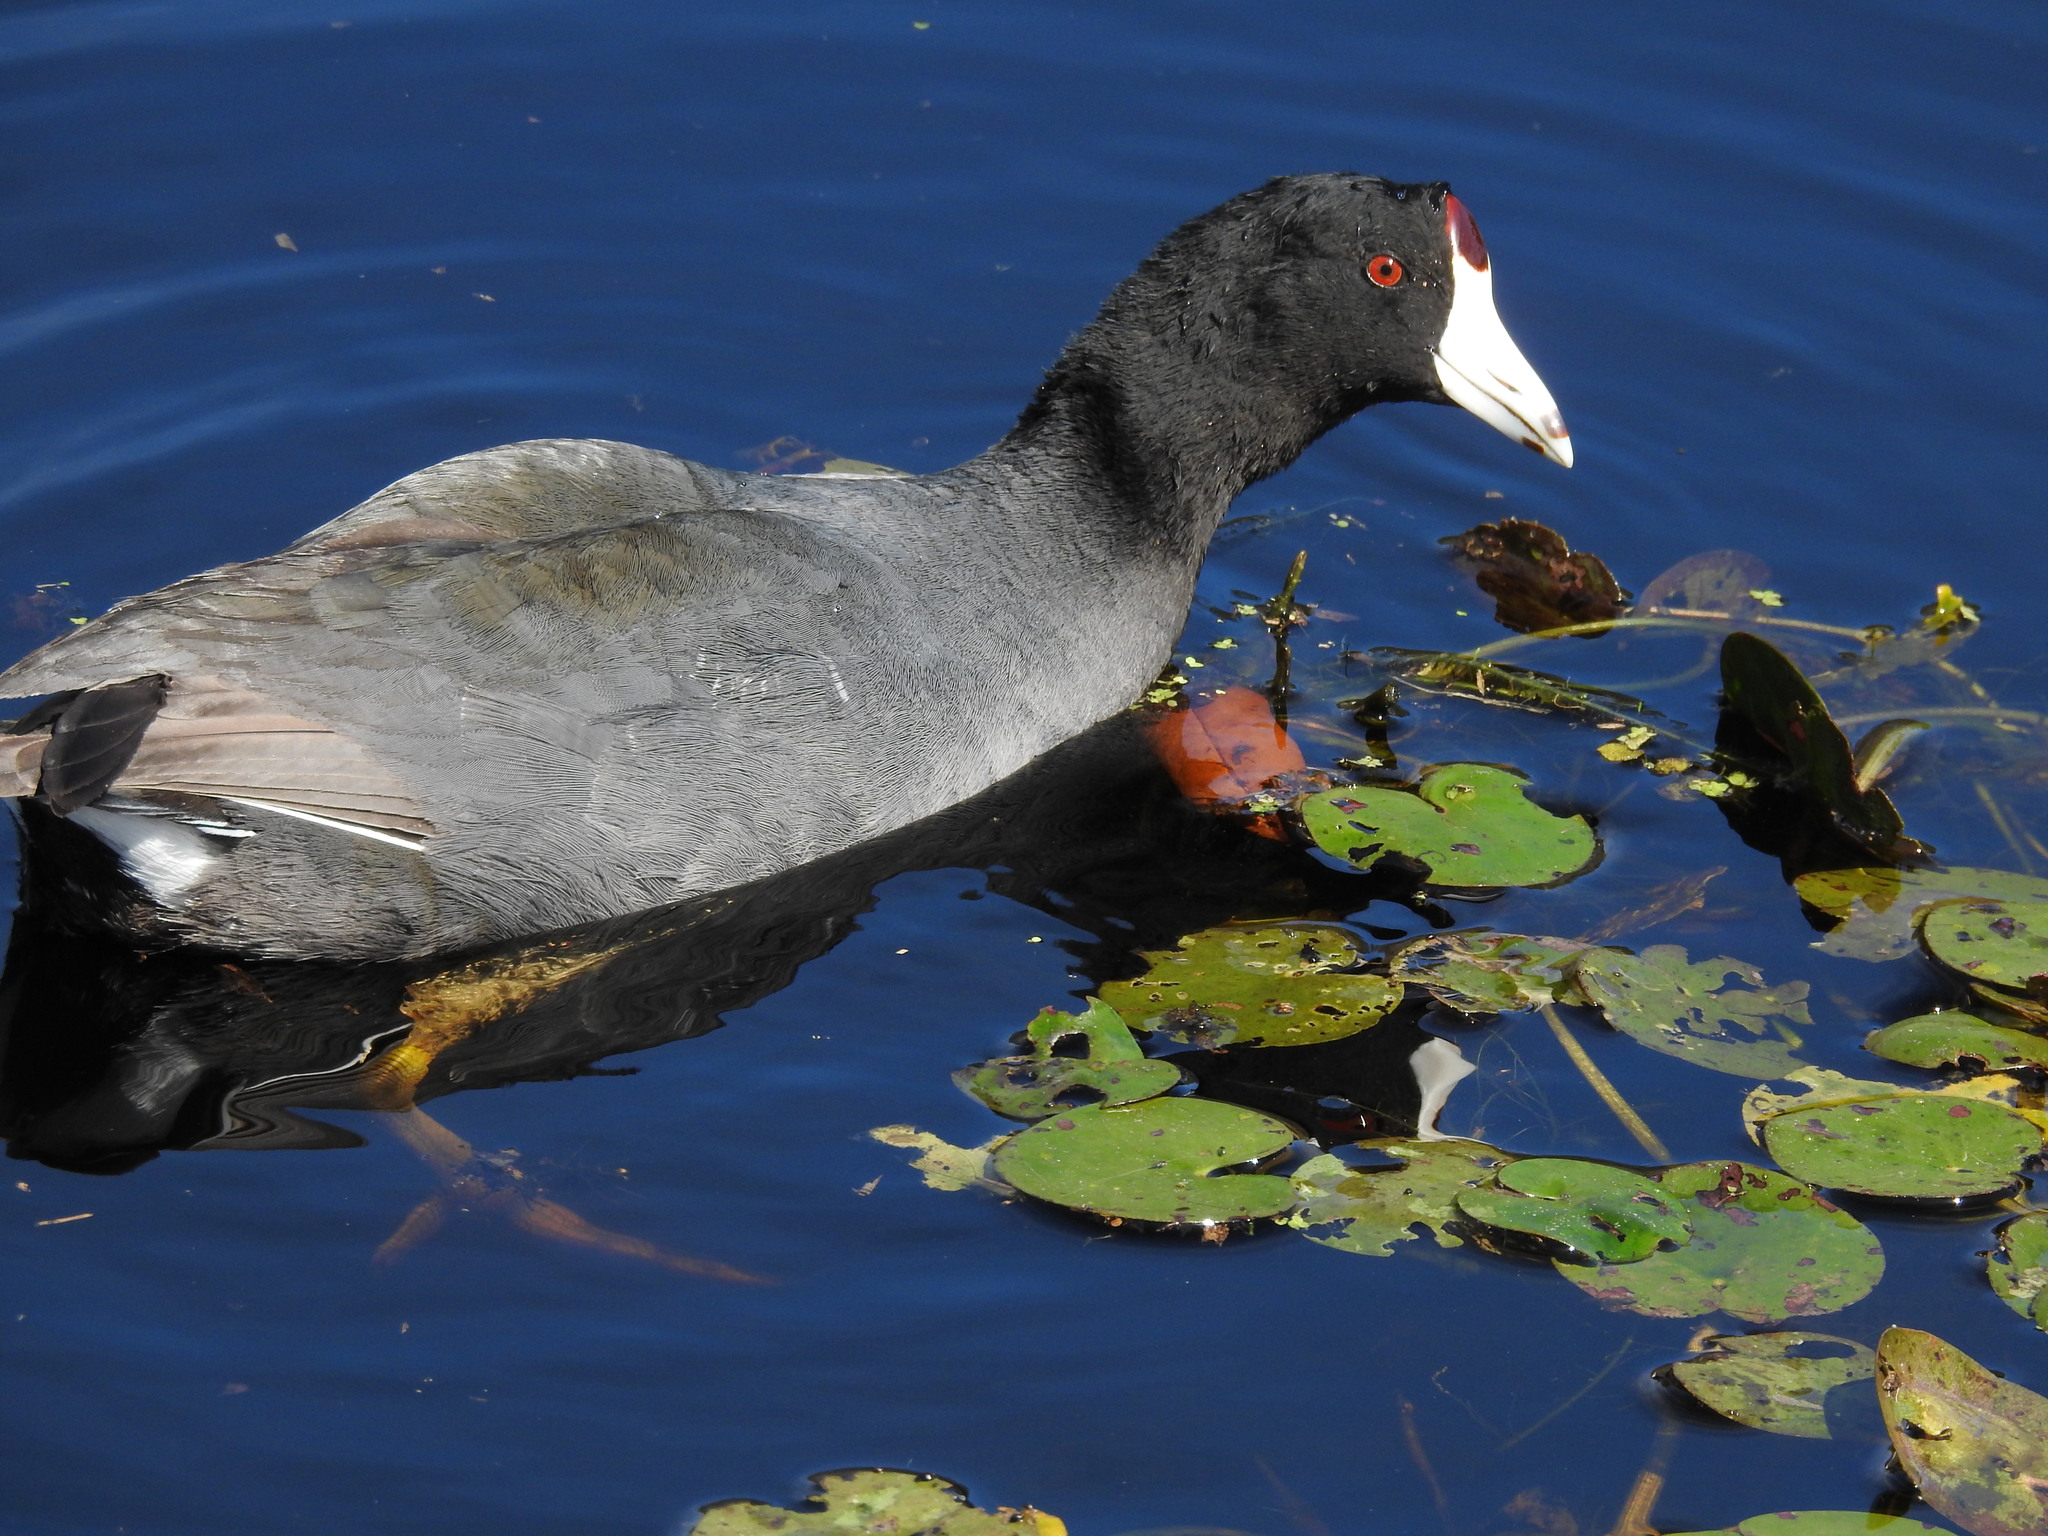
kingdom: Animalia
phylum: Chordata
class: Aves
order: Gruiformes
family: Rallidae
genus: Fulica
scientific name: Fulica americana
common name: American coot
